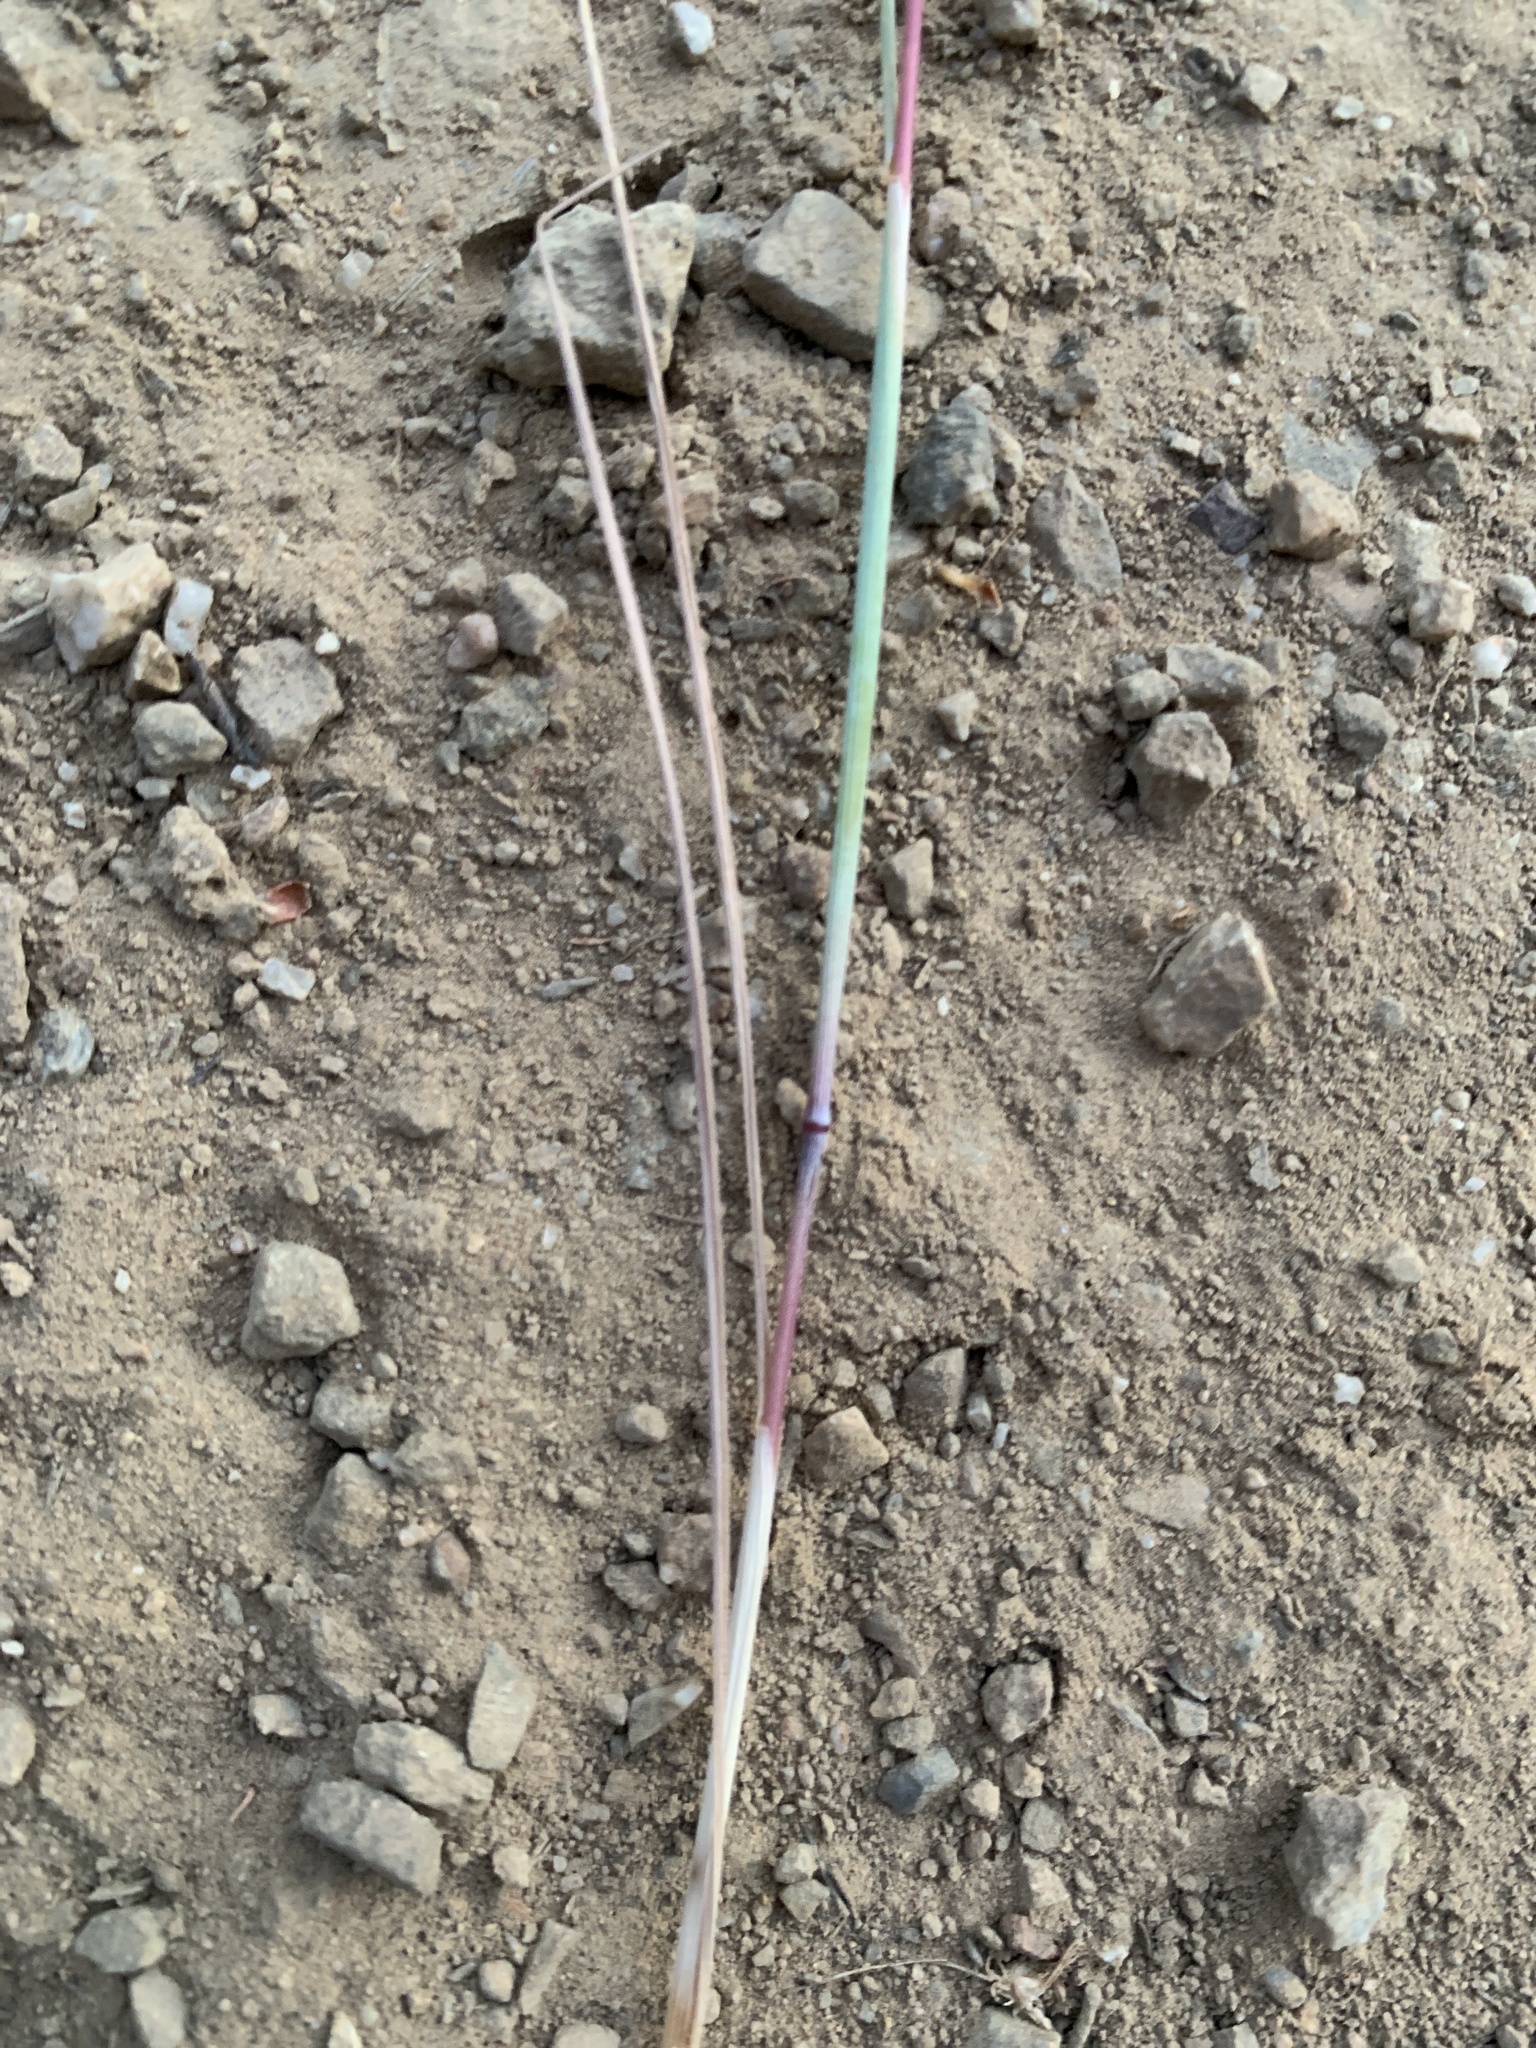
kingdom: Plantae
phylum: Tracheophyta
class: Liliopsida
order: Poales
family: Poaceae
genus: Taeniatherum
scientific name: Taeniatherum caput-medusae
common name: Medusahead
